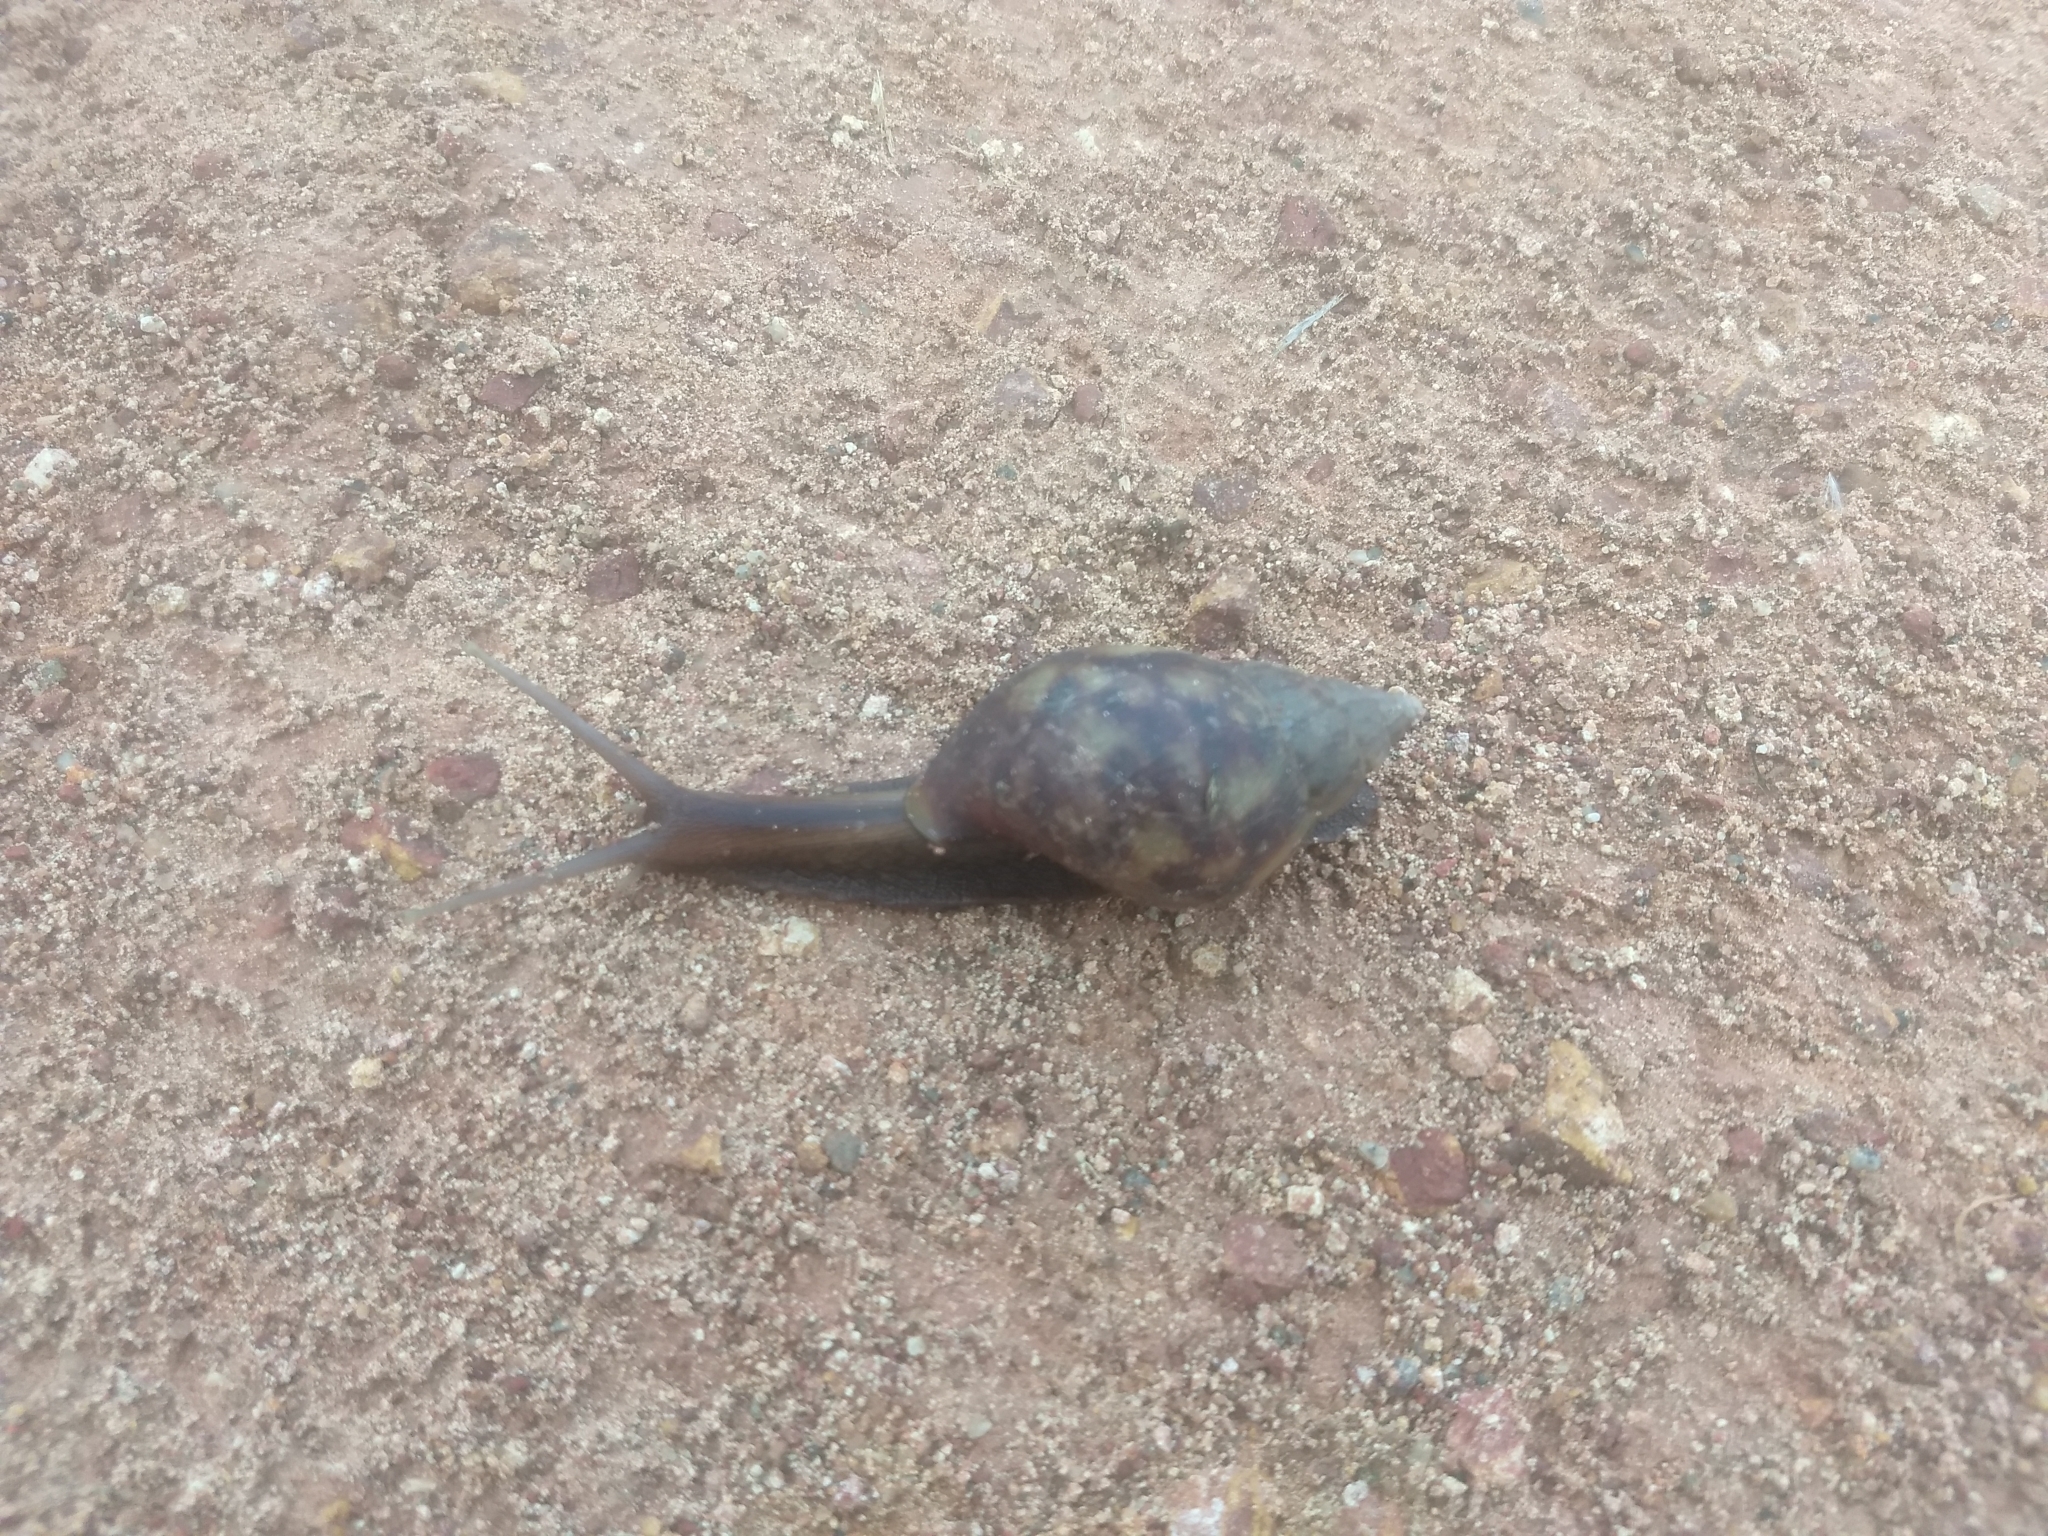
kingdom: Animalia
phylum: Mollusca
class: Gastropoda
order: Stylommatophora
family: Achatinidae
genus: Lissachatina
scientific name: Lissachatina fulica
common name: Giant african snail
